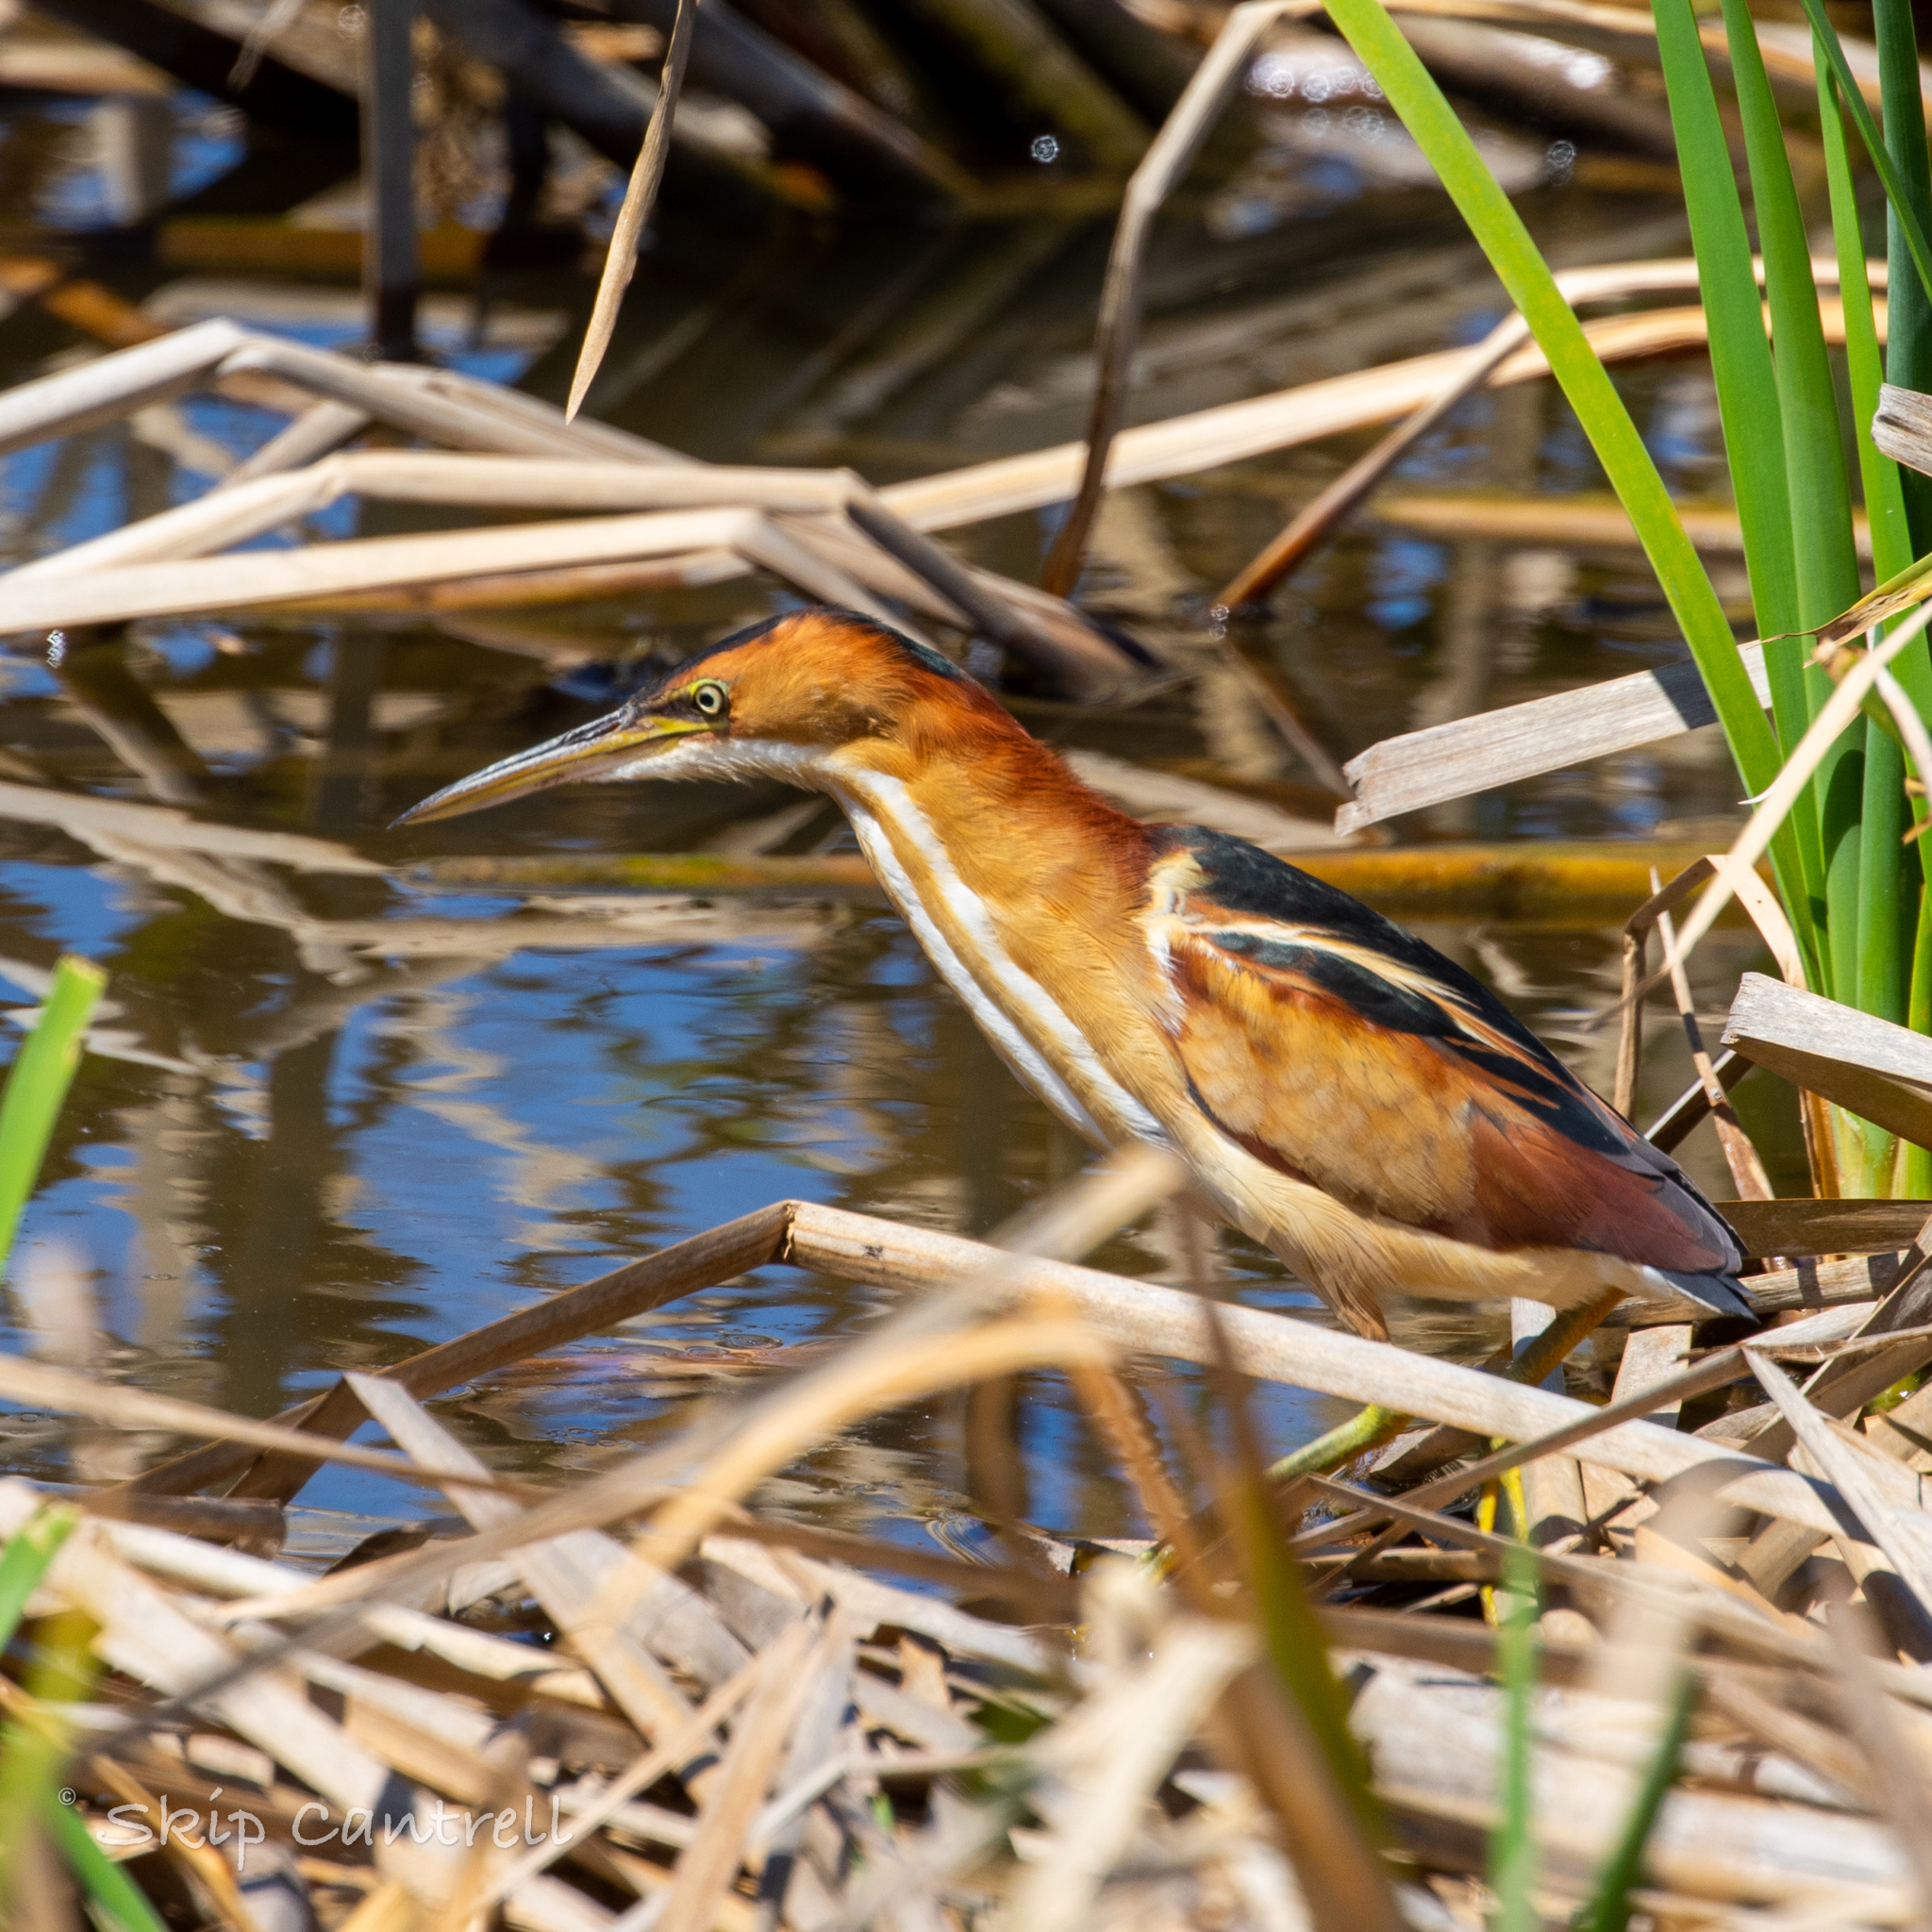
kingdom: Animalia
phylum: Chordata
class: Aves
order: Pelecaniformes
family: Ardeidae
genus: Ixobrychus
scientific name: Ixobrychus exilis
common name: Least bittern
